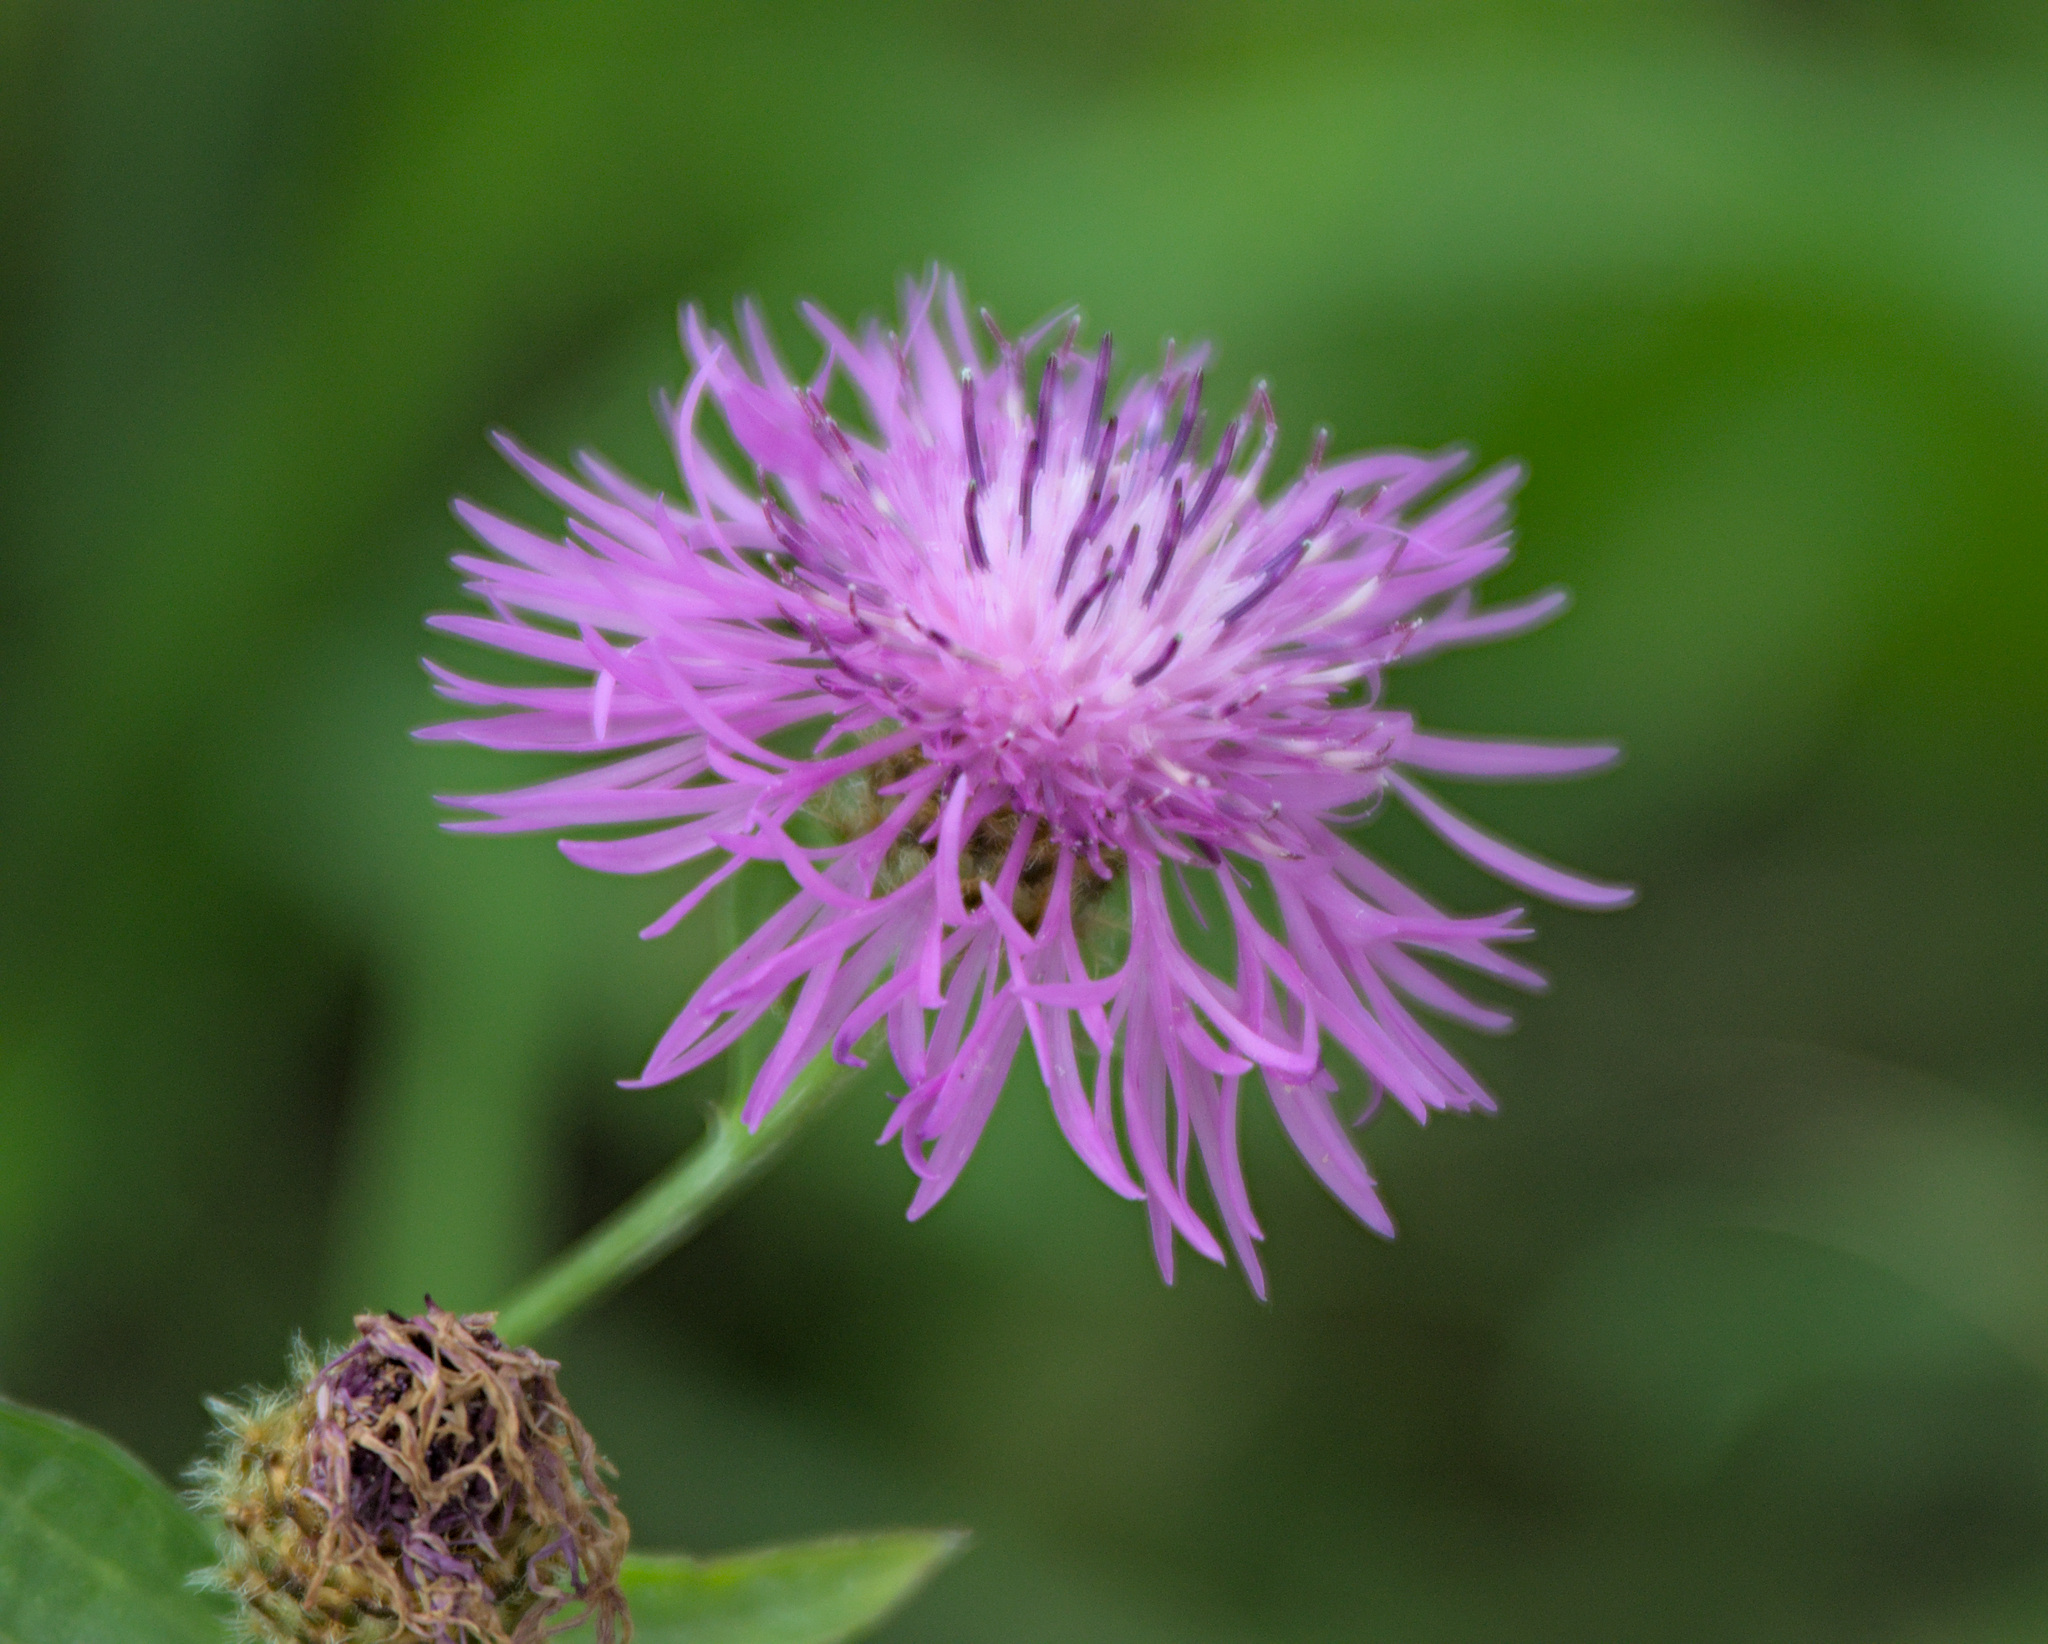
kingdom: Plantae
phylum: Tracheophyta
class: Magnoliopsida
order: Asterales
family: Asteraceae
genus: Centaurea
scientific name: Centaurea jacea
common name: Brown knapweed
